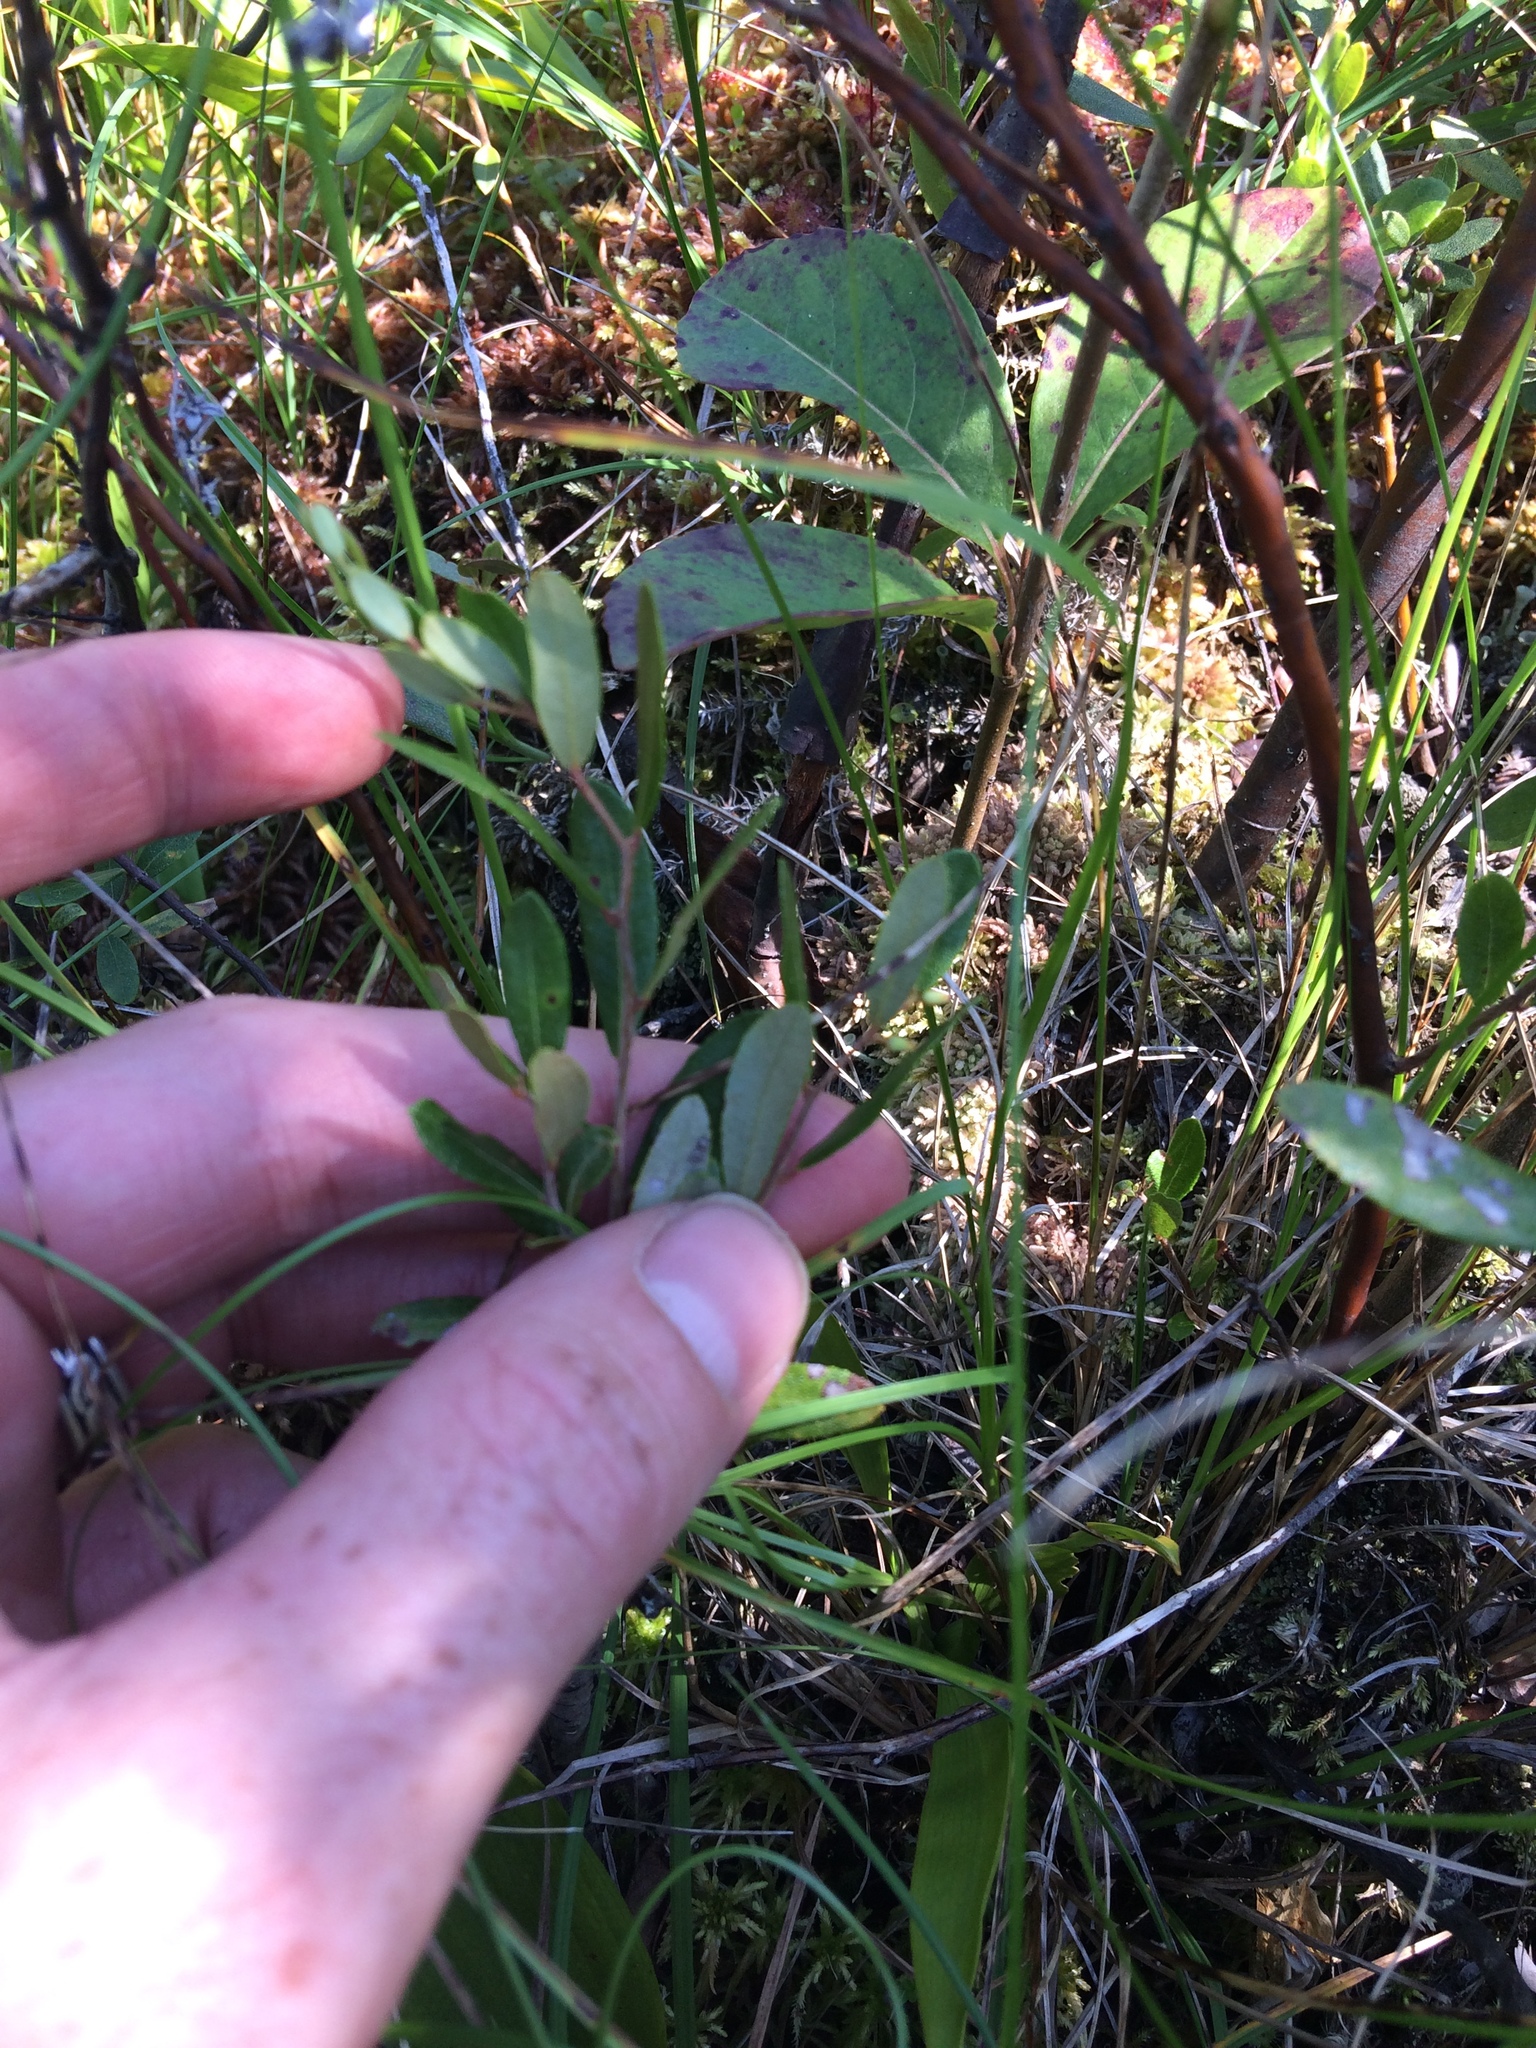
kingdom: Plantae
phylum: Tracheophyta
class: Magnoliopsida
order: Ericales
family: Ericaceae
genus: Chamaedaphne
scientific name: Chamaedaphne calyculata
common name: Leatherleaf
